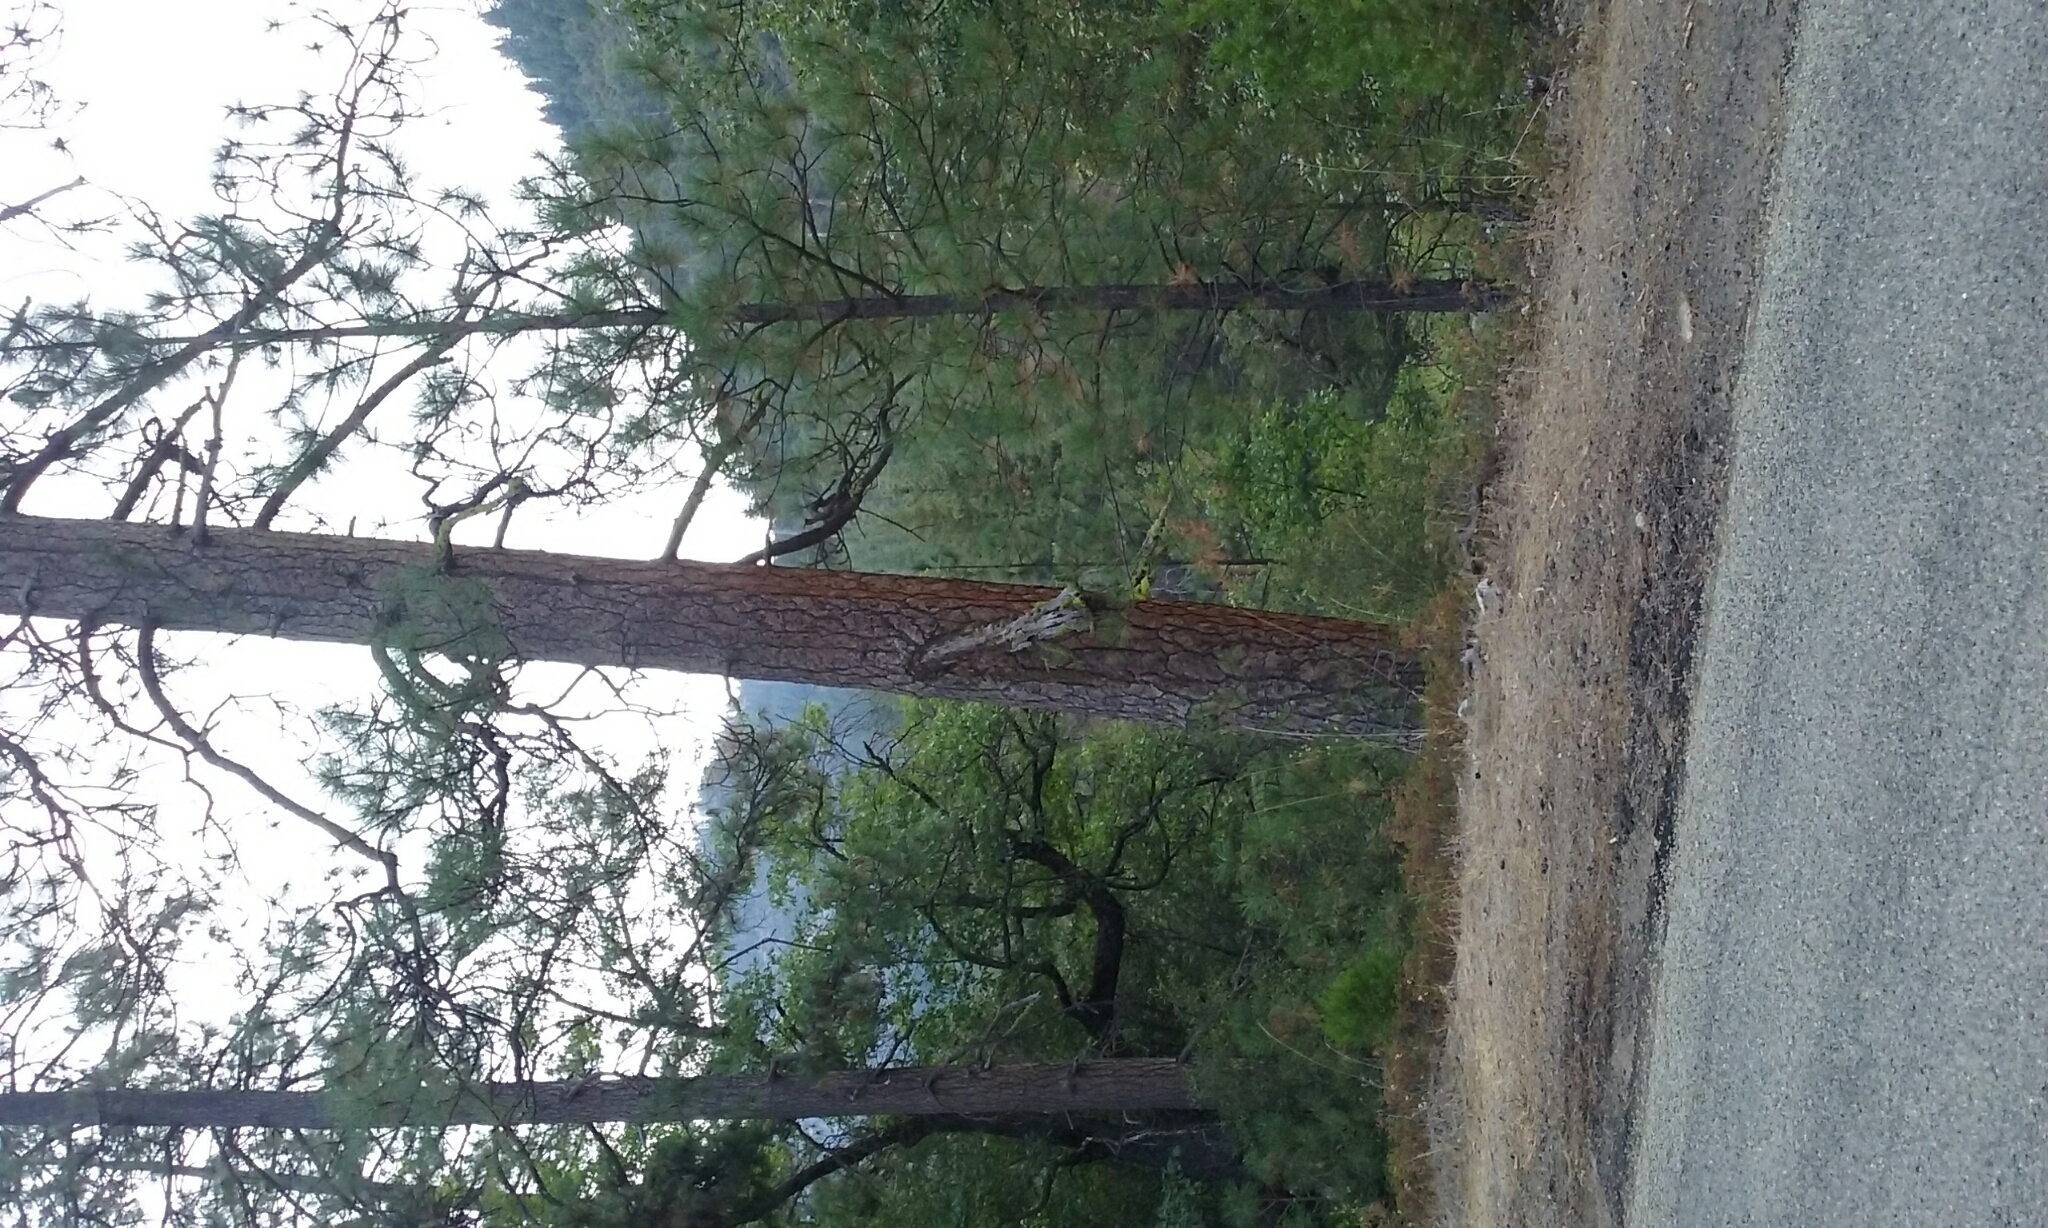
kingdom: Plantae
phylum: Tracheophyta
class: Pinopsida
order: Pinales
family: Pinaceae
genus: Pinus
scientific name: Pinus ponderosa
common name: Western yellow-pine
